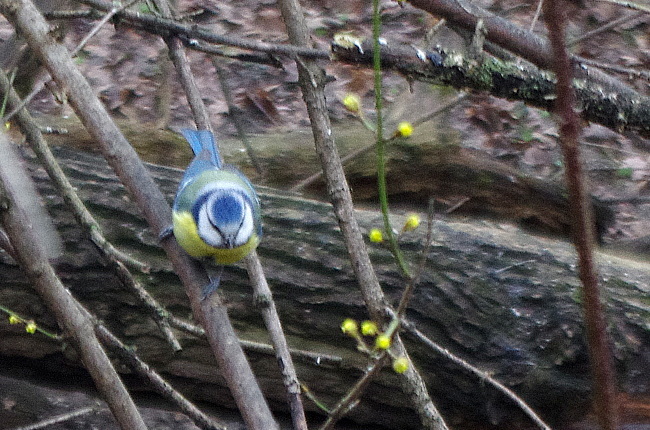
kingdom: Animalia
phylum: Chordata
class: Aves
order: Passeriformes
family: Paridae
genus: Cyanistes
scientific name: Cyanistes caeruleus
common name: Eurasian blue tit
